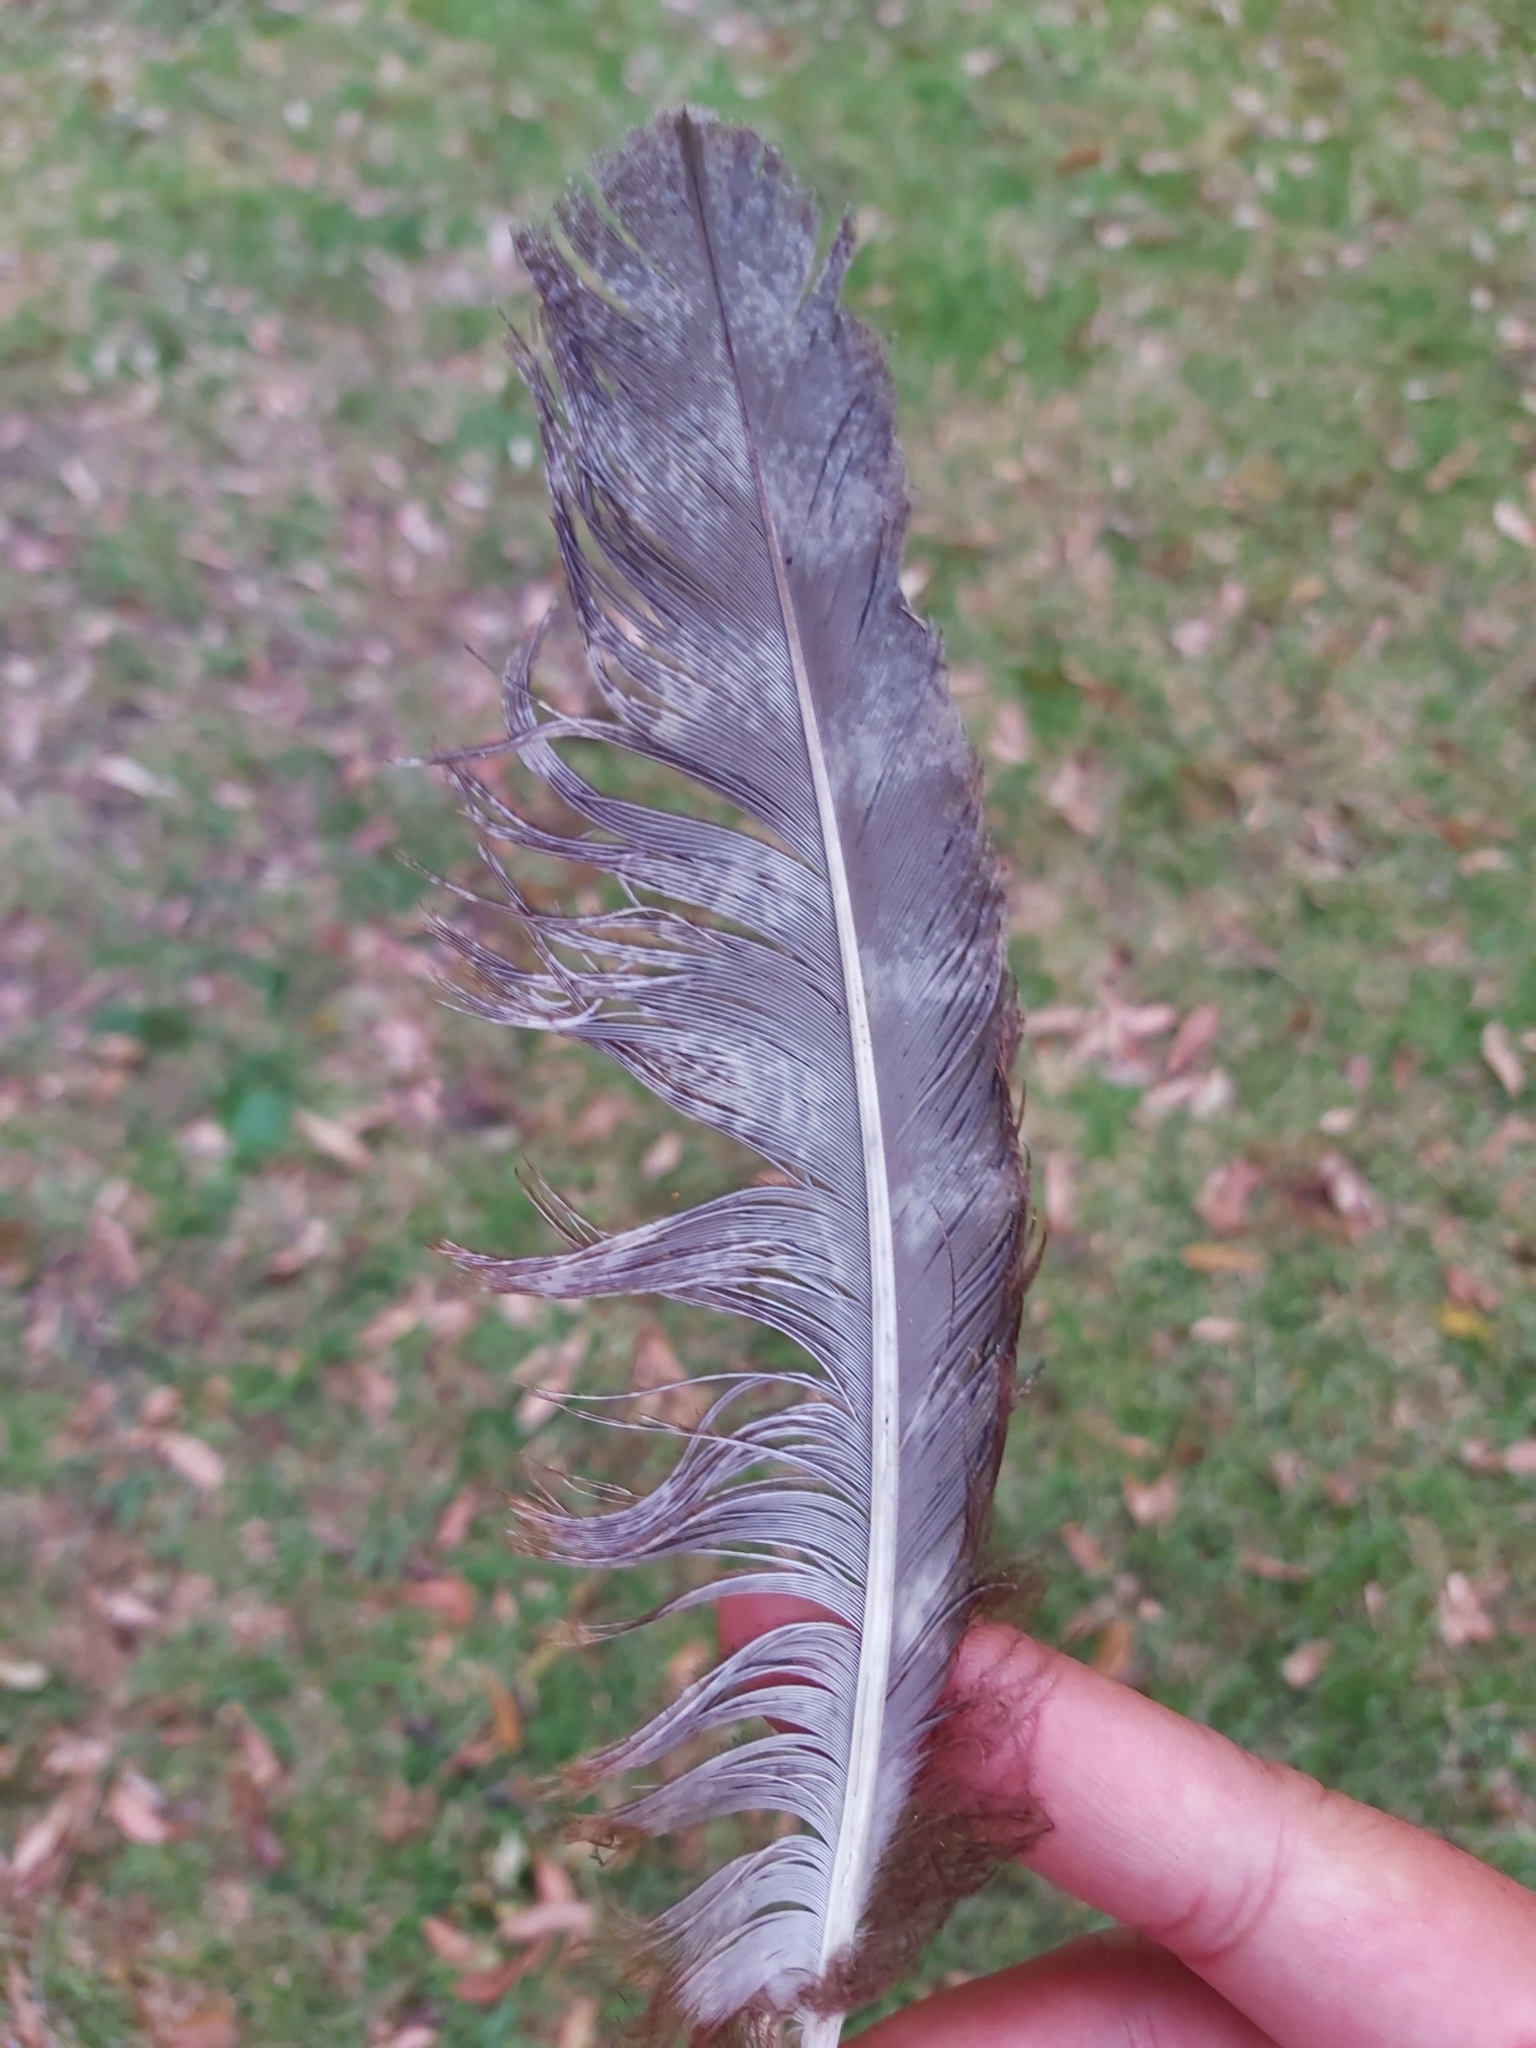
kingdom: Animalia
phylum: Chordata
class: Aves
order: Caprimulgiformes
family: Podargidae
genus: Podargus
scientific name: Podargus strigoides
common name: Tawny frogmouth
